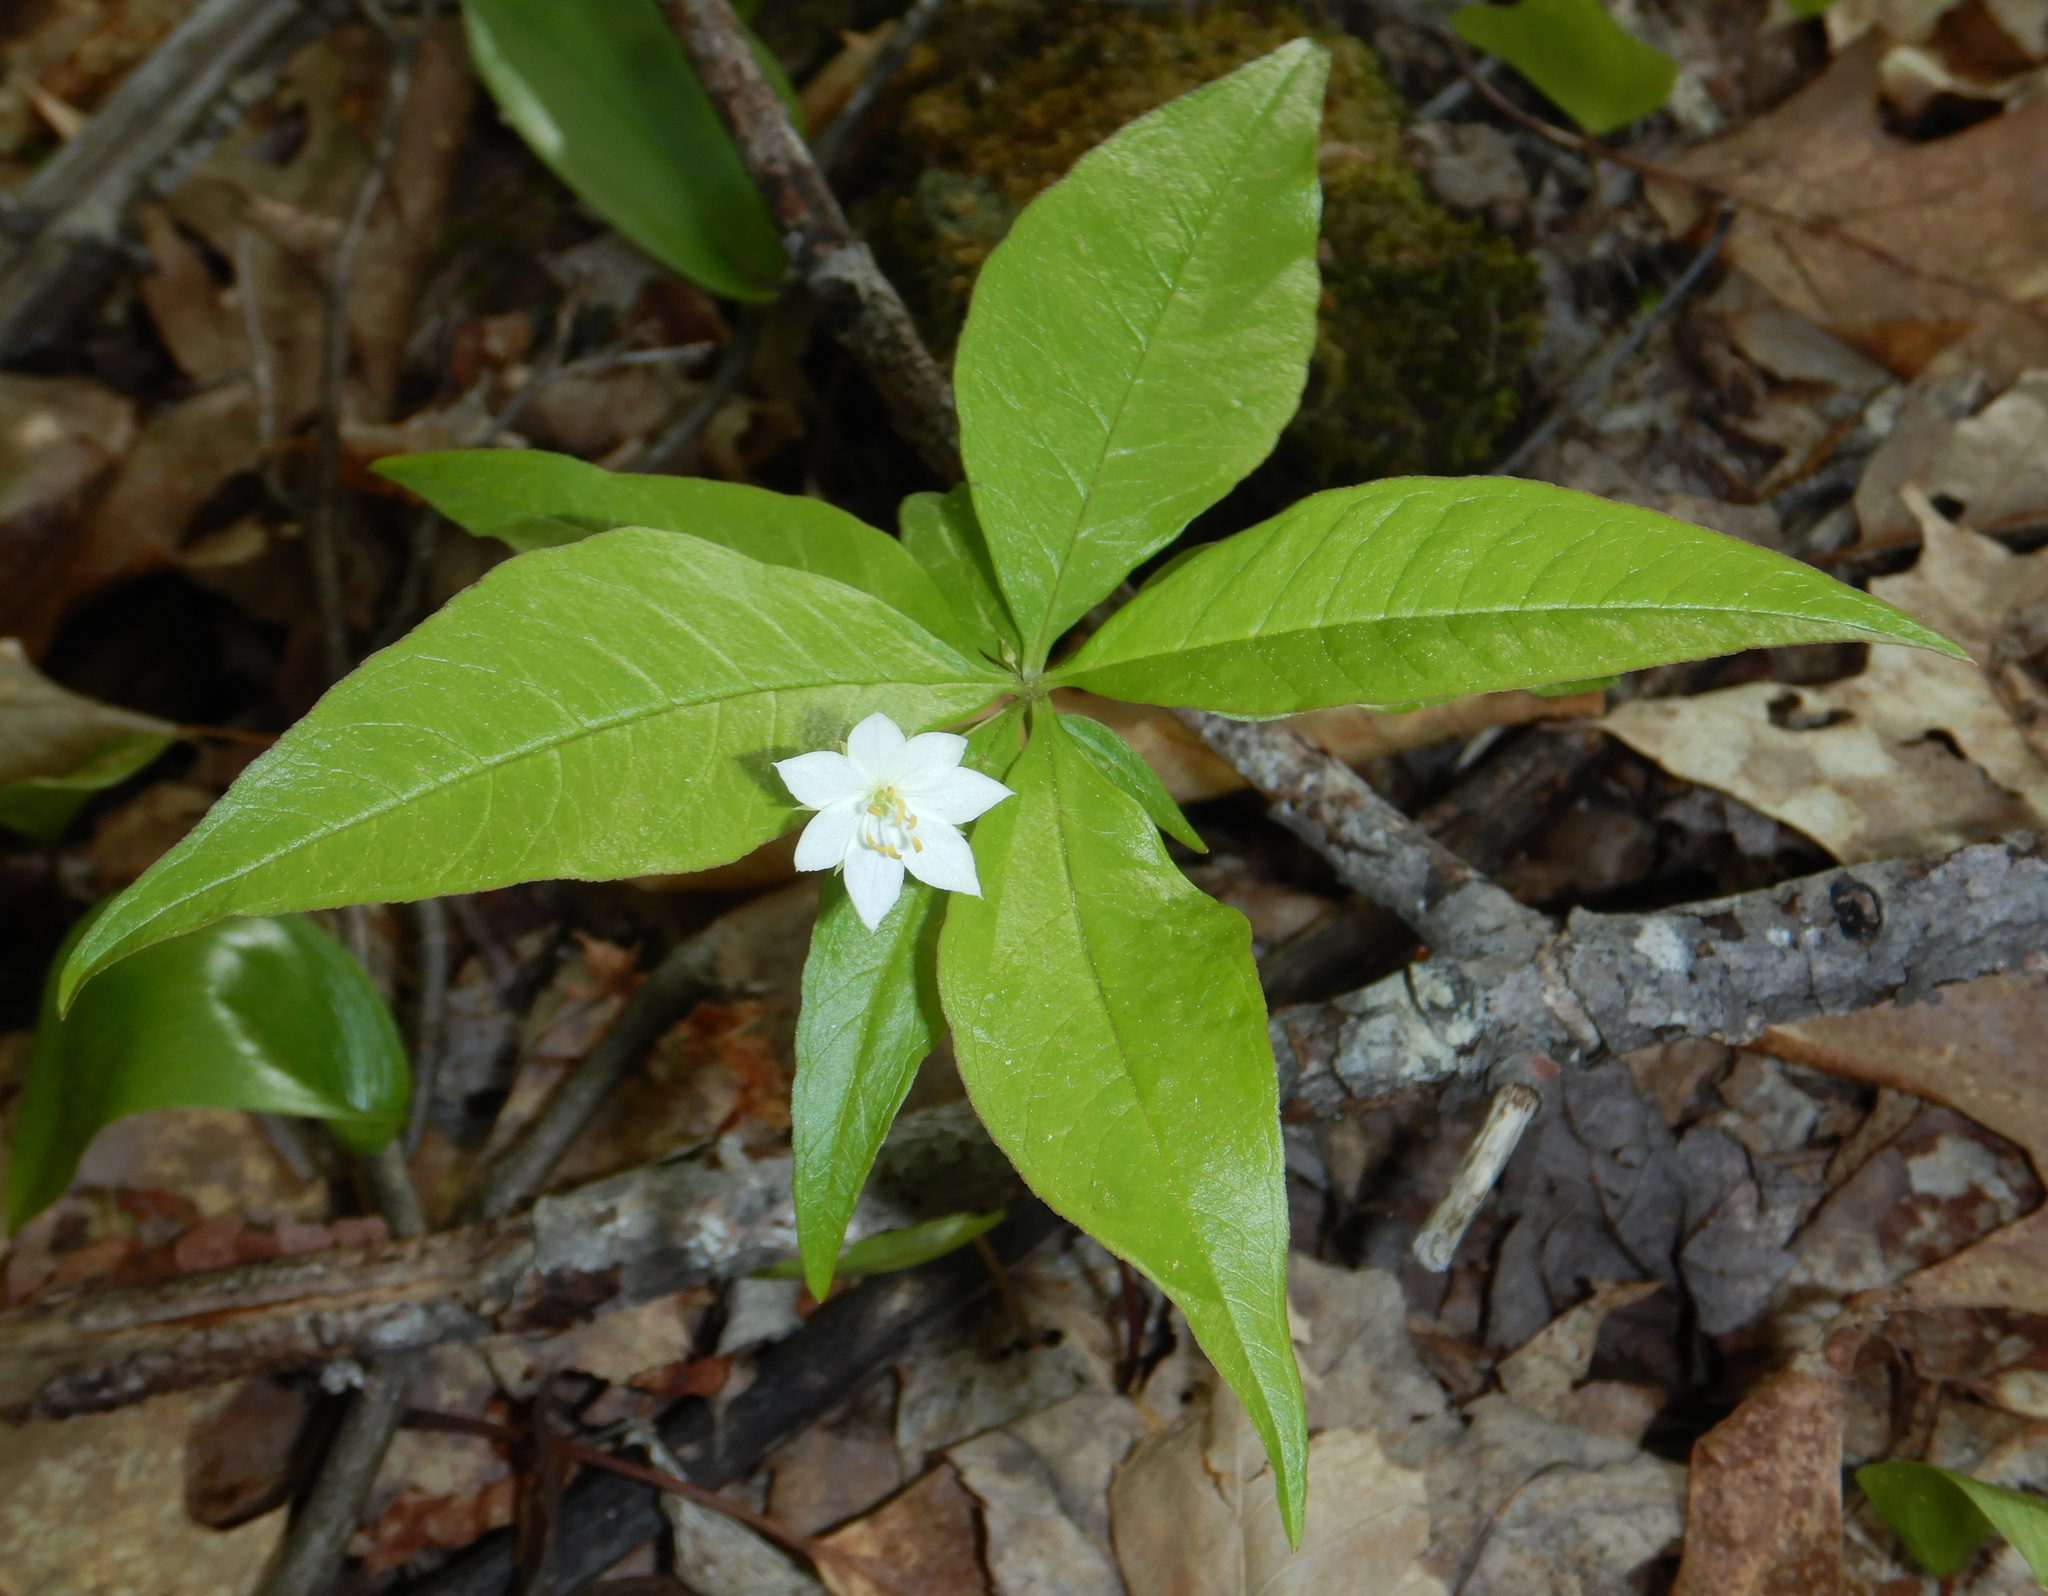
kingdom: Plantae
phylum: Tracheophyta
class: Magnoliopsida
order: Ericales
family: Primulaceae
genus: Lysimachia
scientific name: Lysimachia borealis
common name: American starflower
